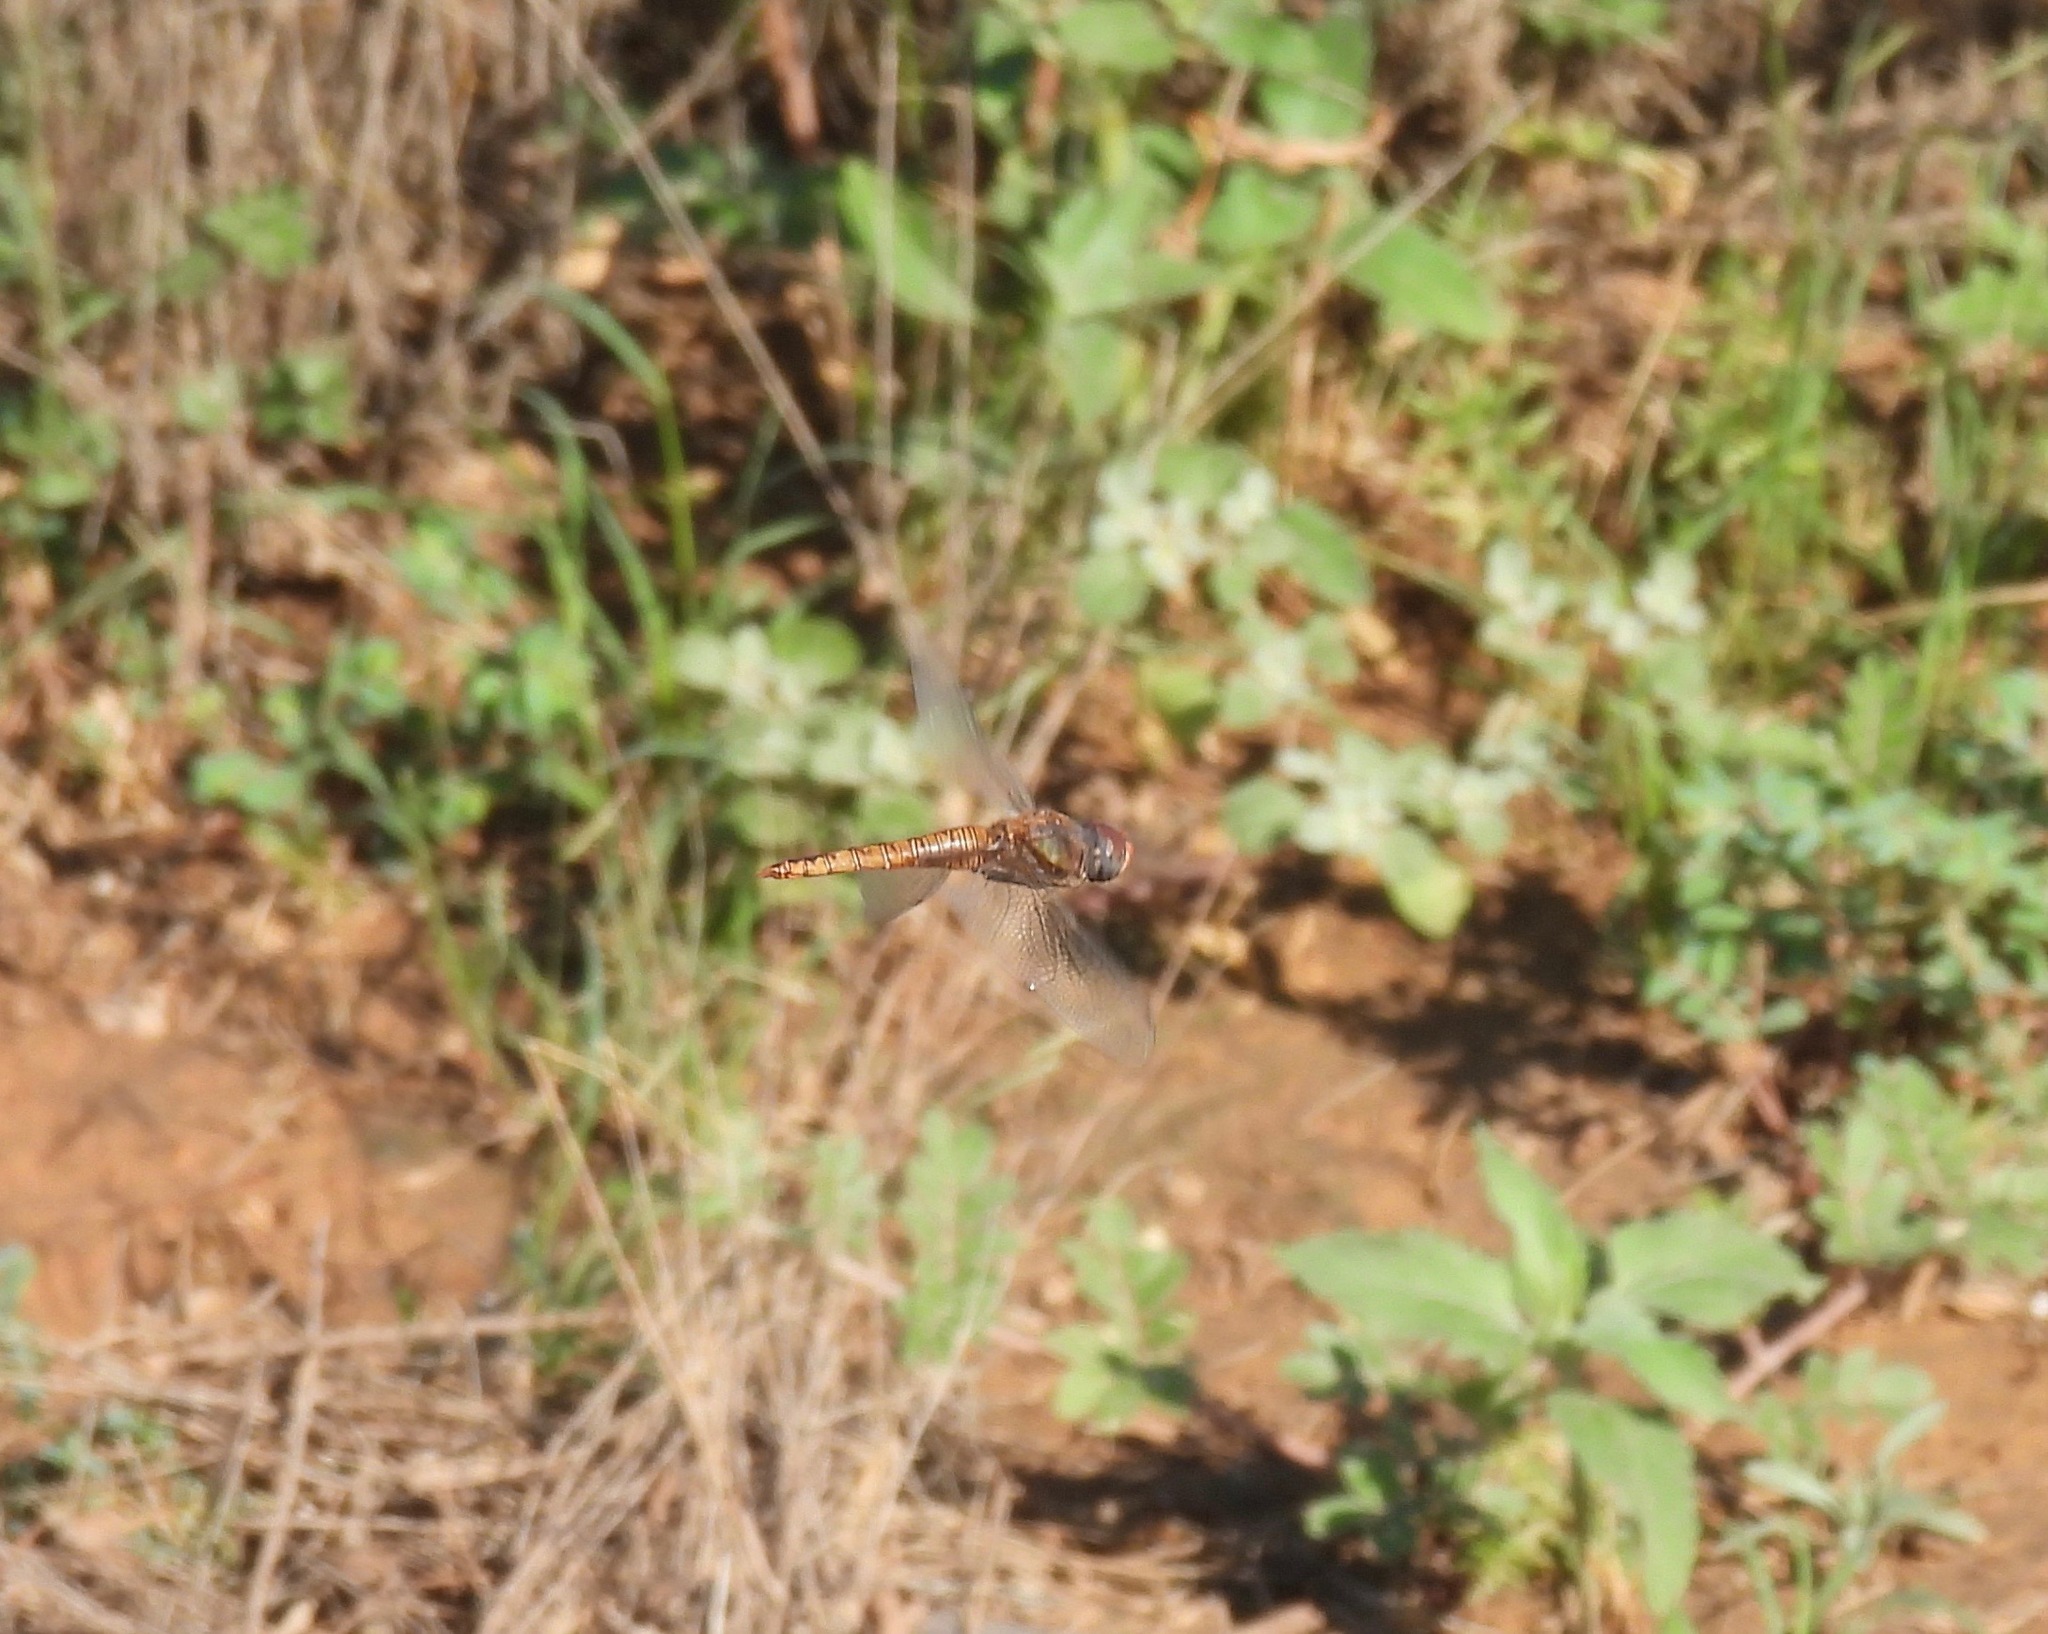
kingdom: Animalia
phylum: Arthropoda
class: Insecta
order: Odonata
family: Libellulidae
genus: Pantala
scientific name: Pantala hymenaea
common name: Spot-winged glider
